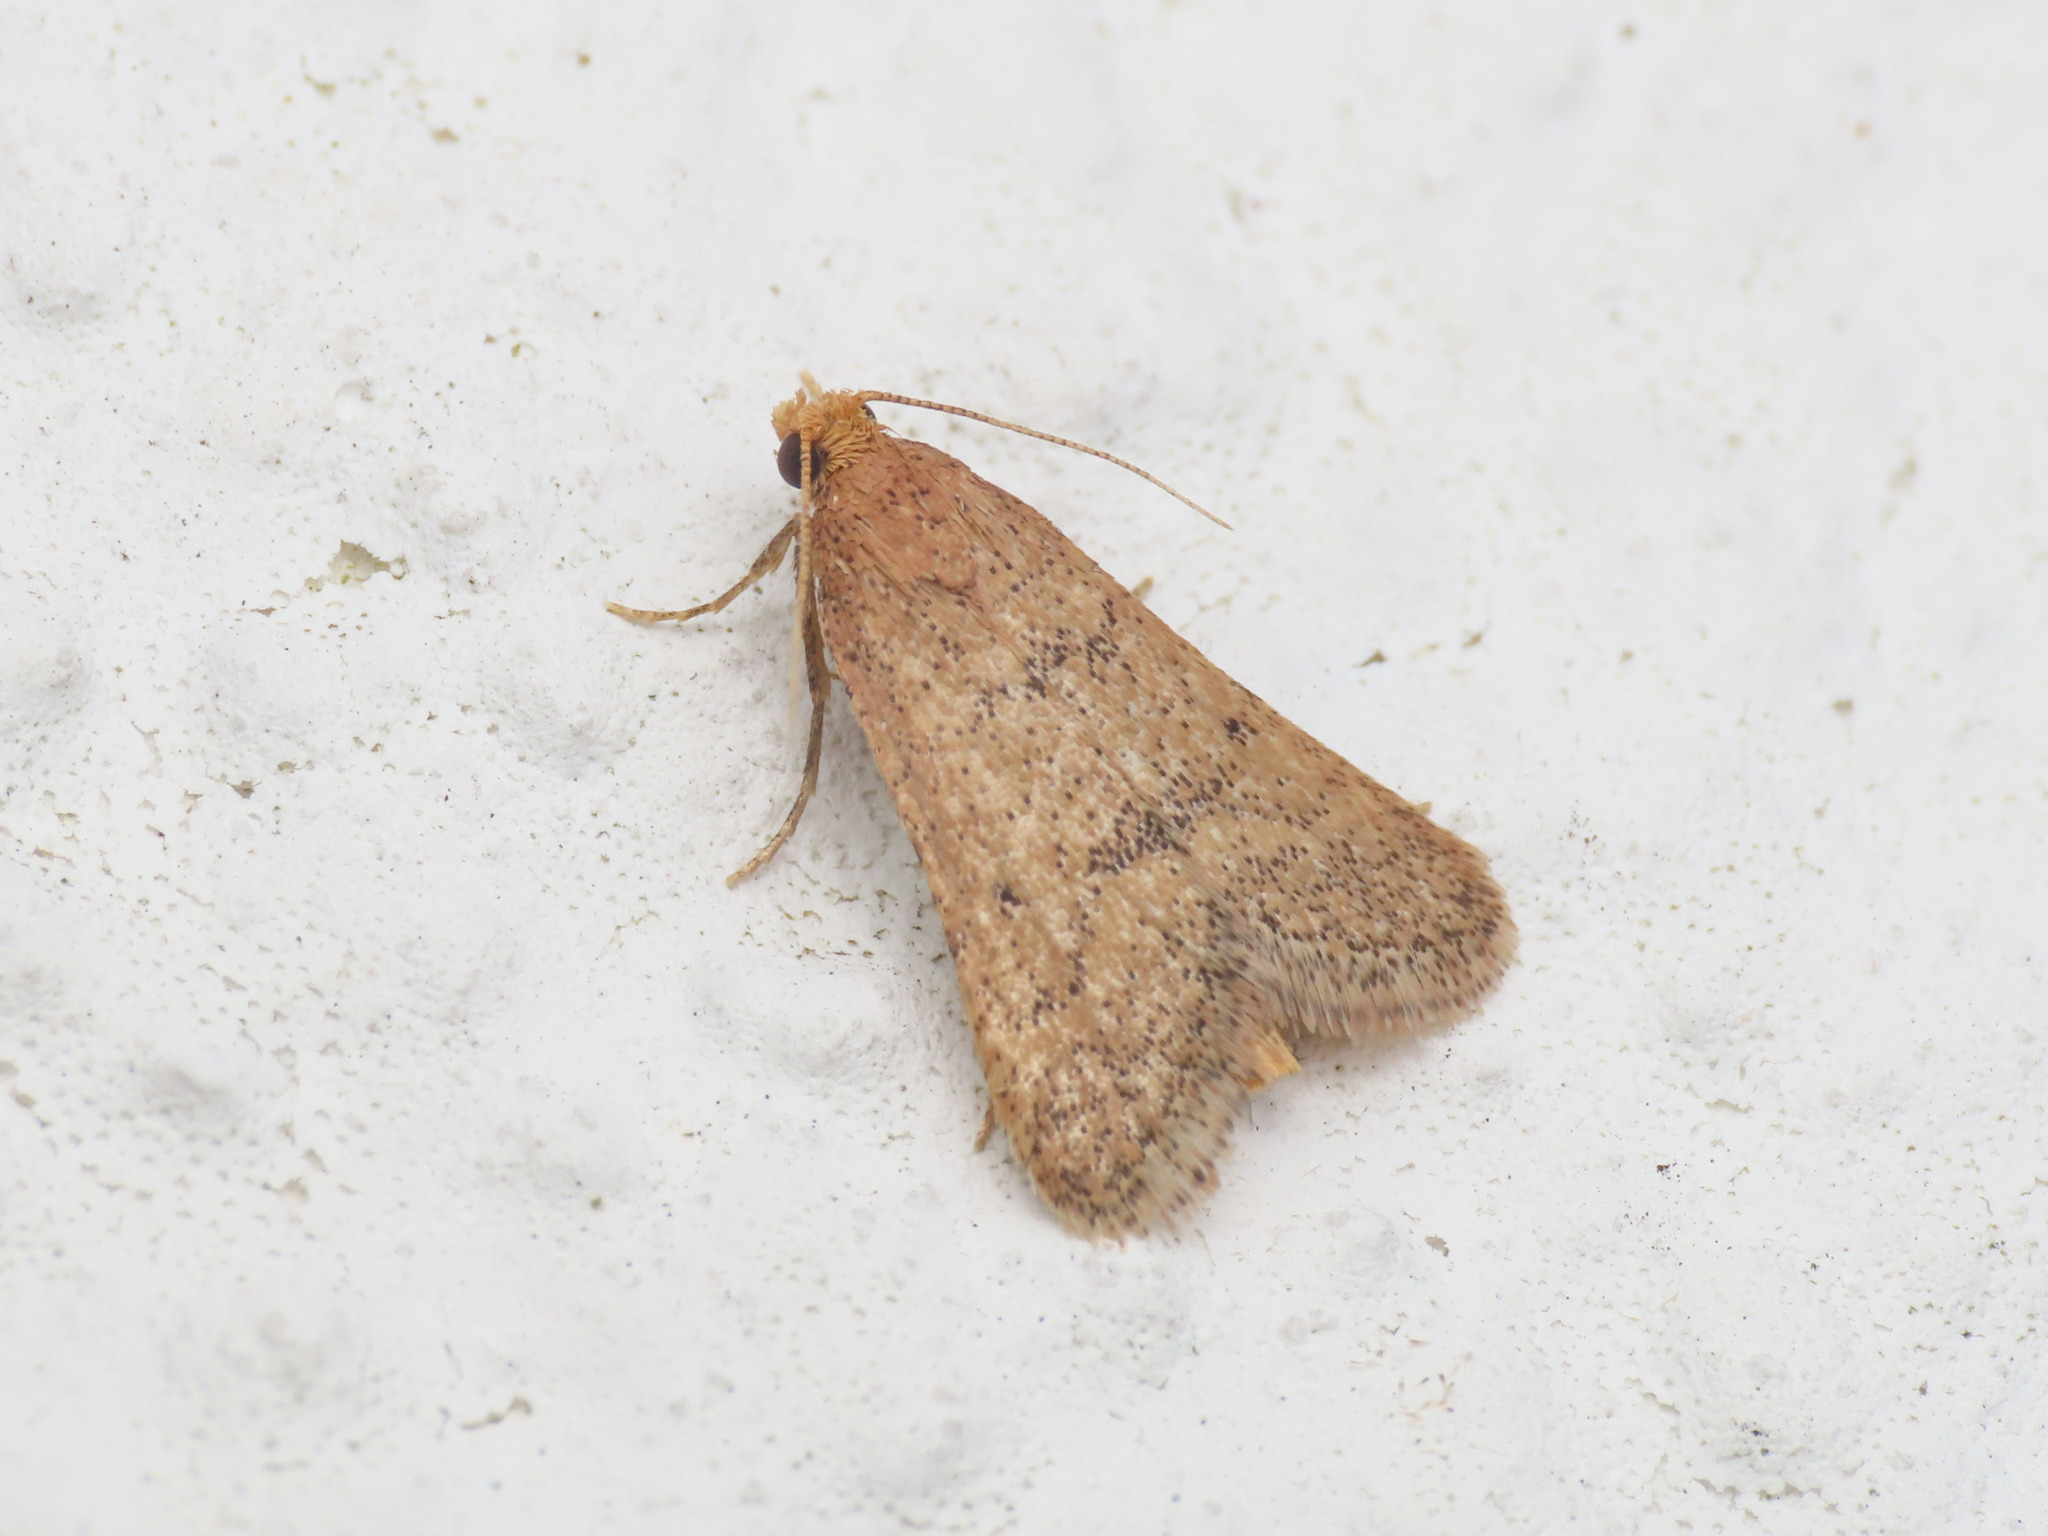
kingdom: Animalia
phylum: Arthropoda
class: Insecta
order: Lepidoptera
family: Pyralidae
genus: Bostra
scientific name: Bostra obsoletalis
